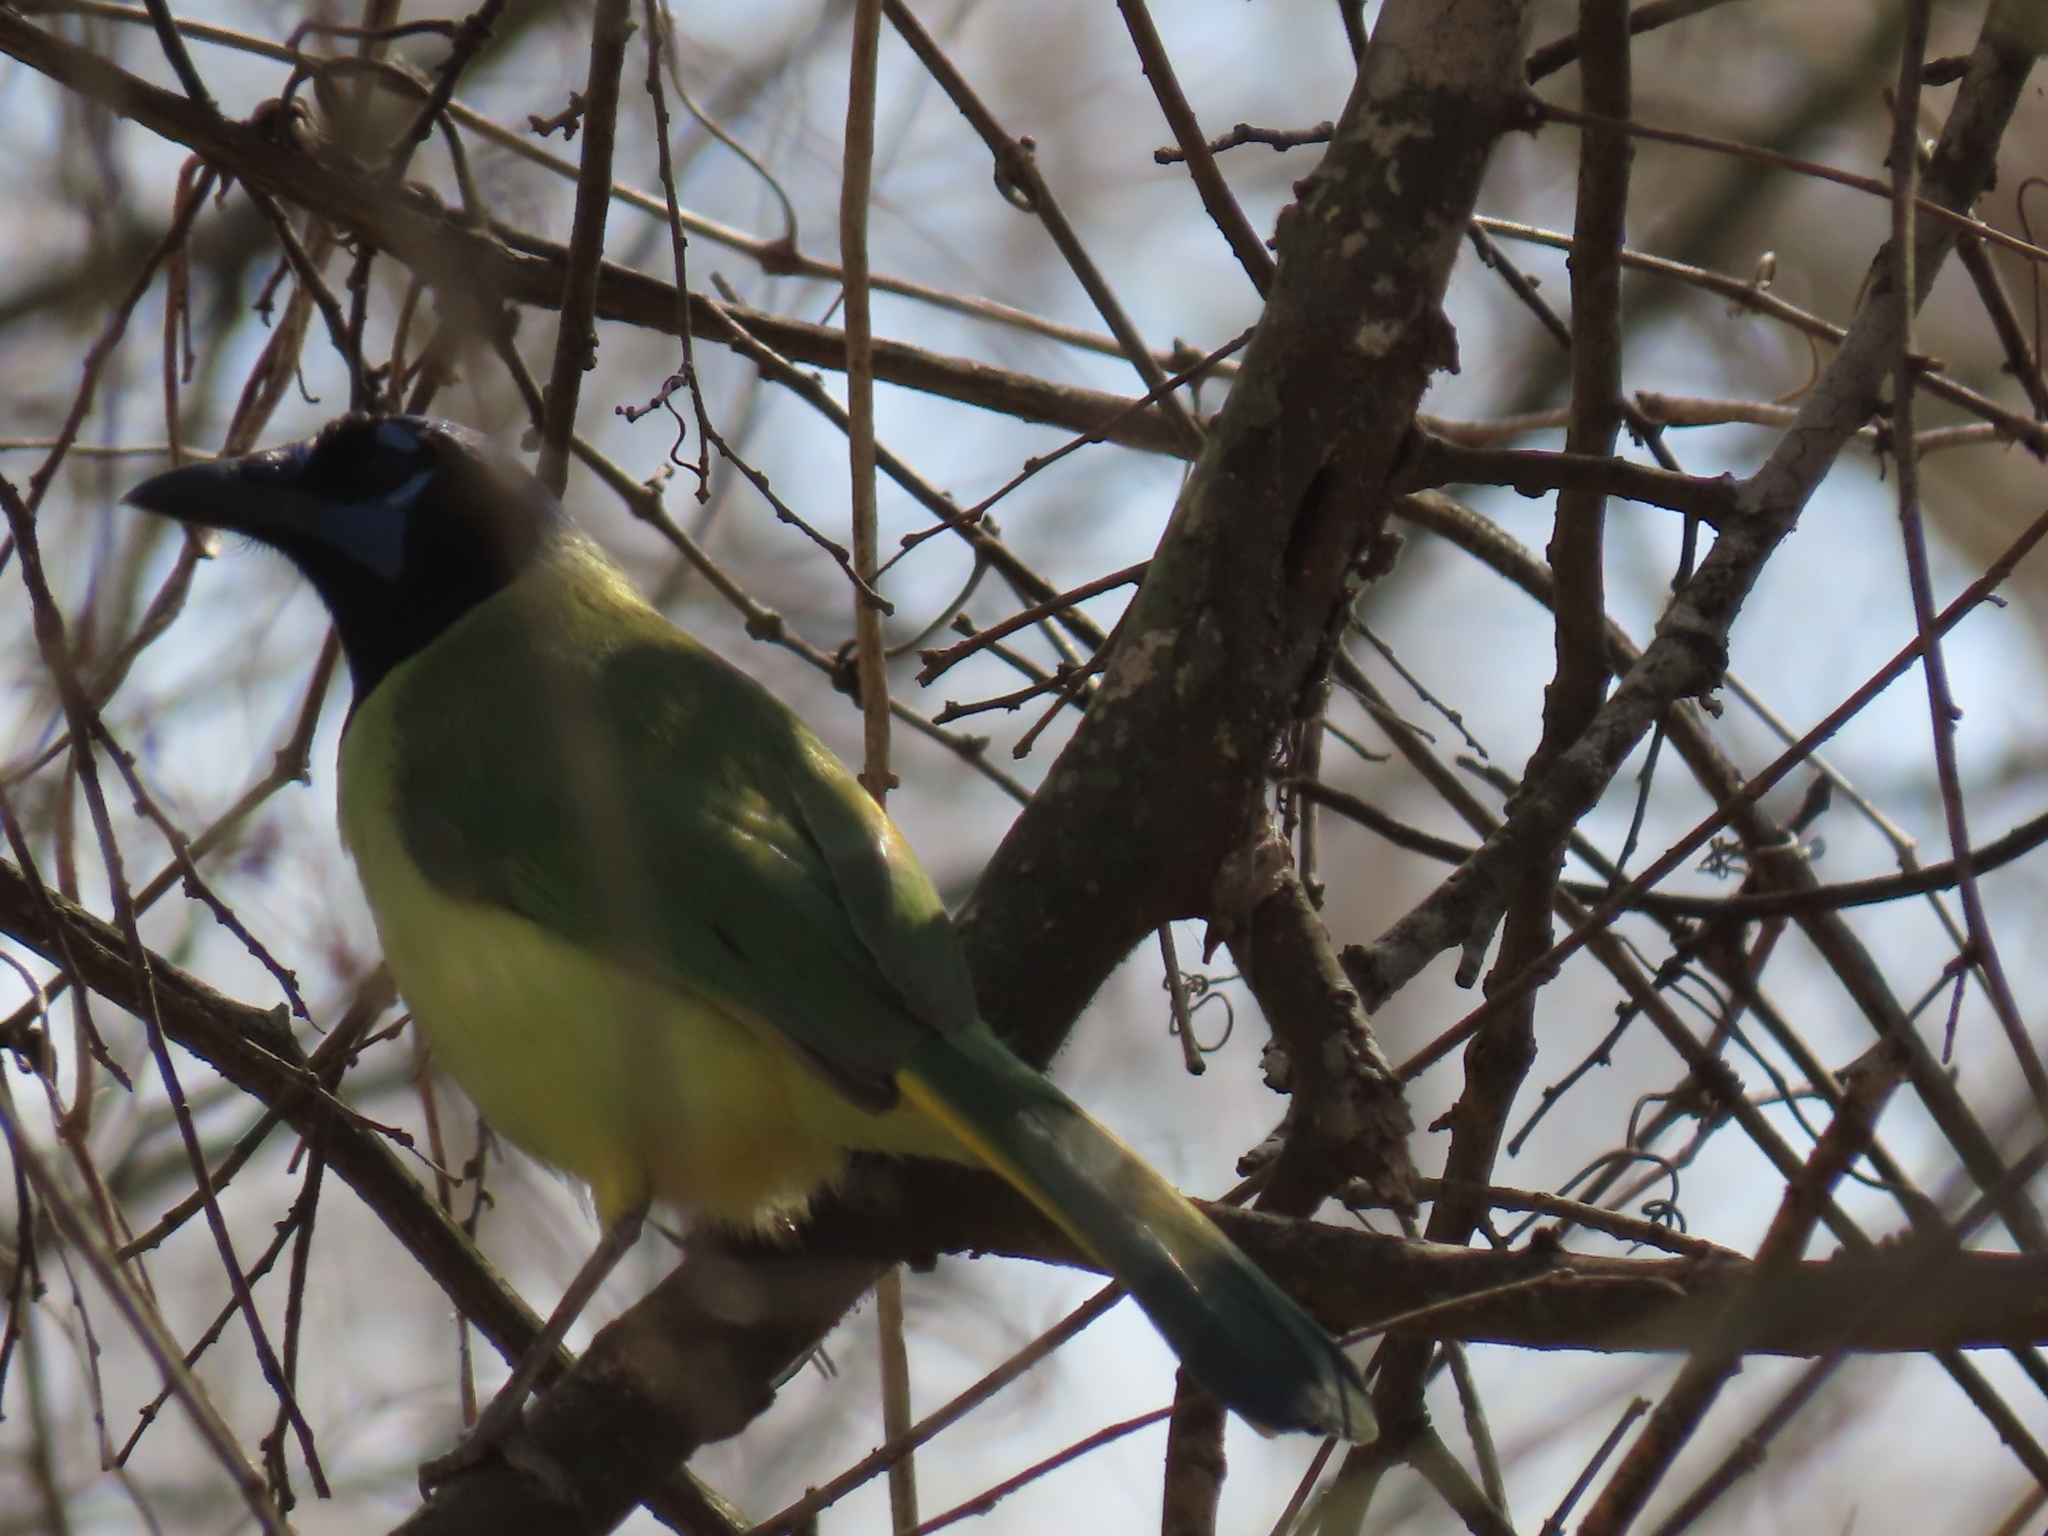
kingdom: Animalia
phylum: Chordata
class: Aves
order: Passeriformes
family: Corvidae
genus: Cyanocorax
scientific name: Cyanocorax yncas
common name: Green jay
